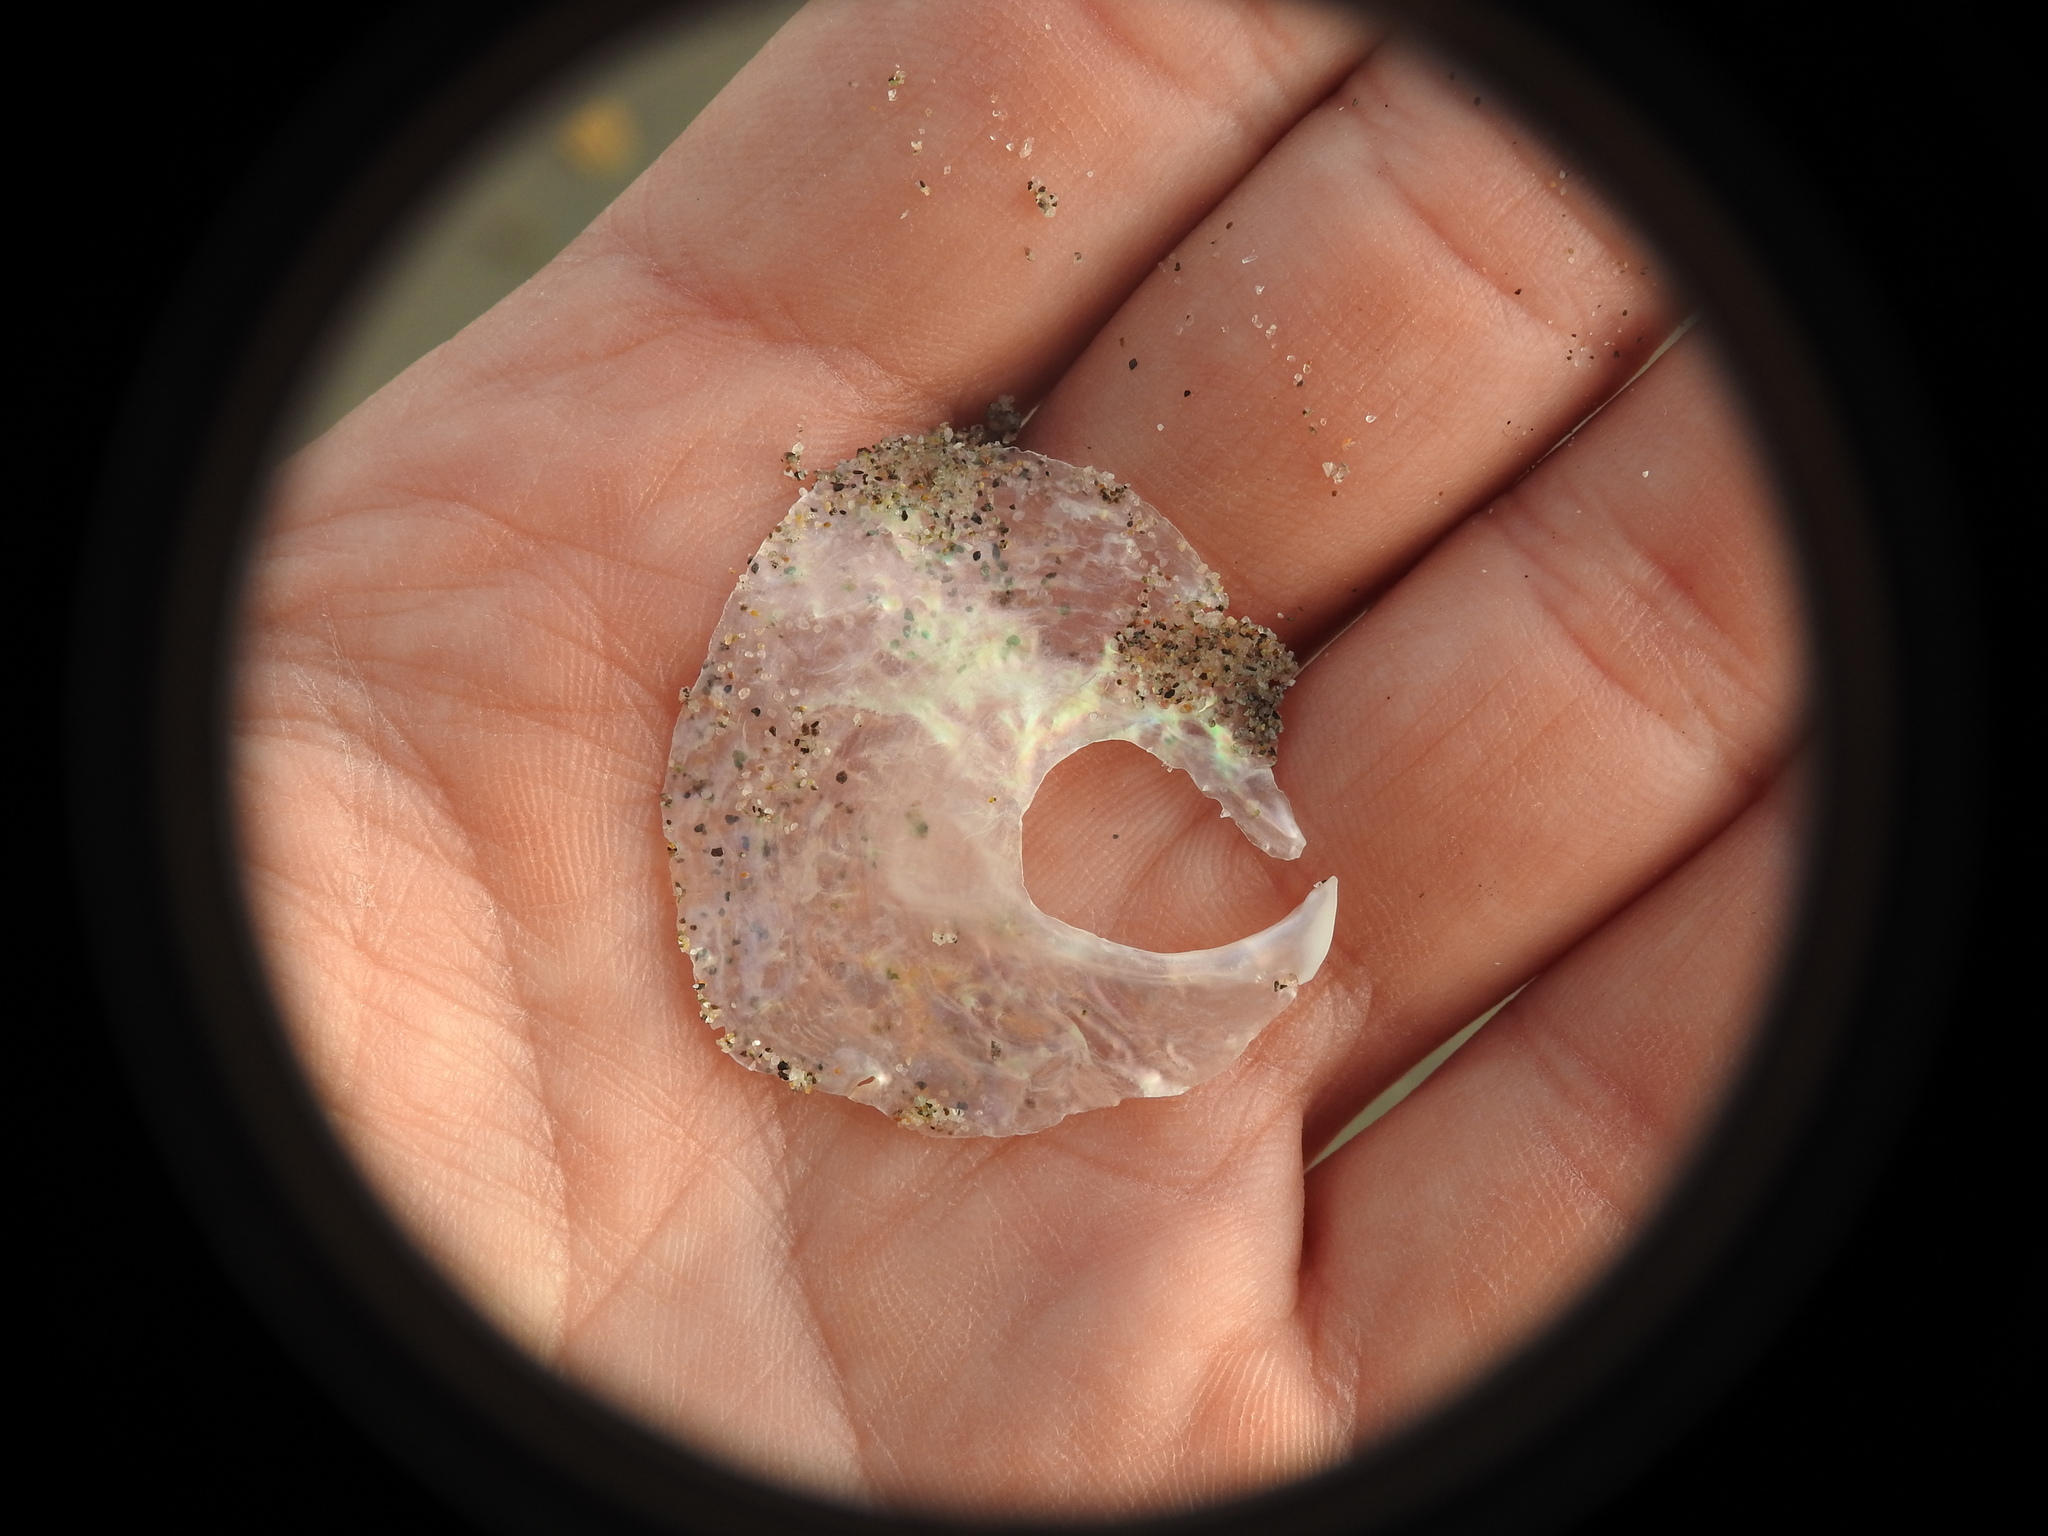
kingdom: Animalia
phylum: Mollusca
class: Bivalvia
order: Pectinida
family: Anomiidae
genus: Anomia
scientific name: Anomia ephippium
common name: Saddle oyster
